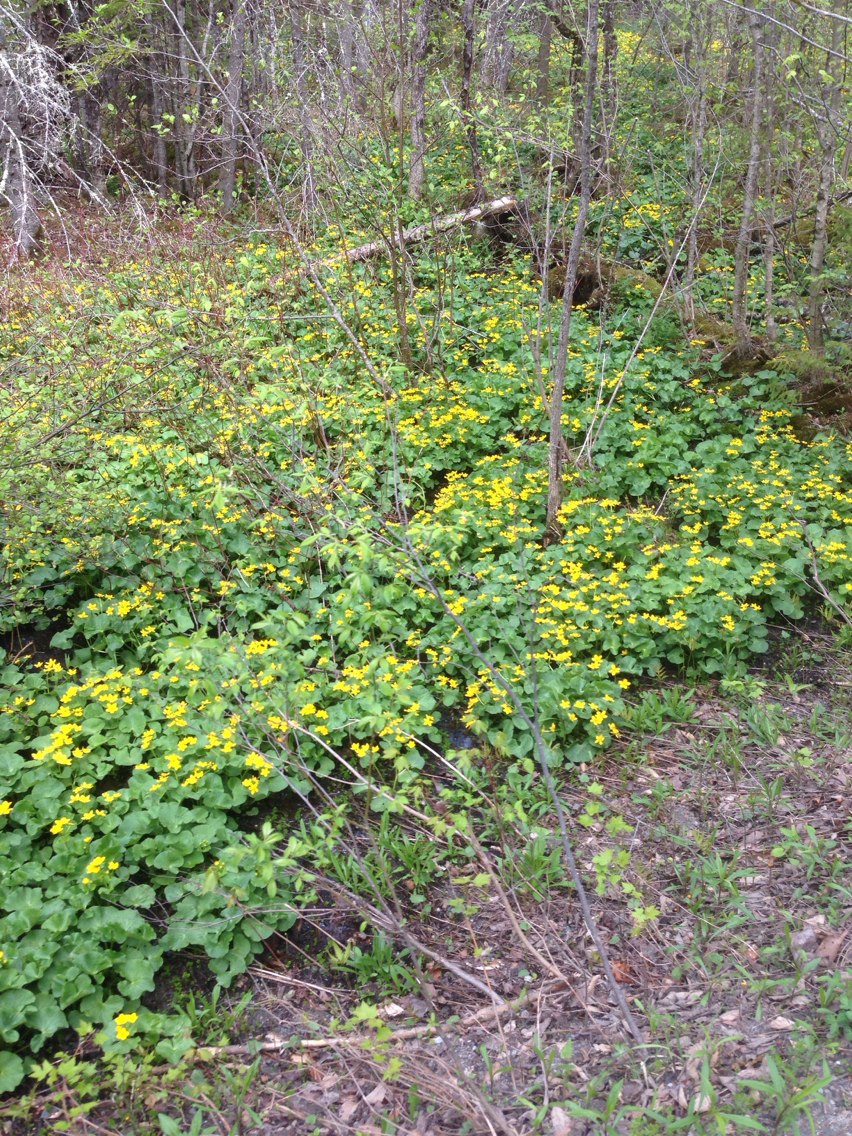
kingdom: Plantae
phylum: Tracheophyta
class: Magnoliopsida
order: Ranunculales
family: Ranunculaceae
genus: Caltha
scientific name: Caltha palustris
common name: Marsh marigold
